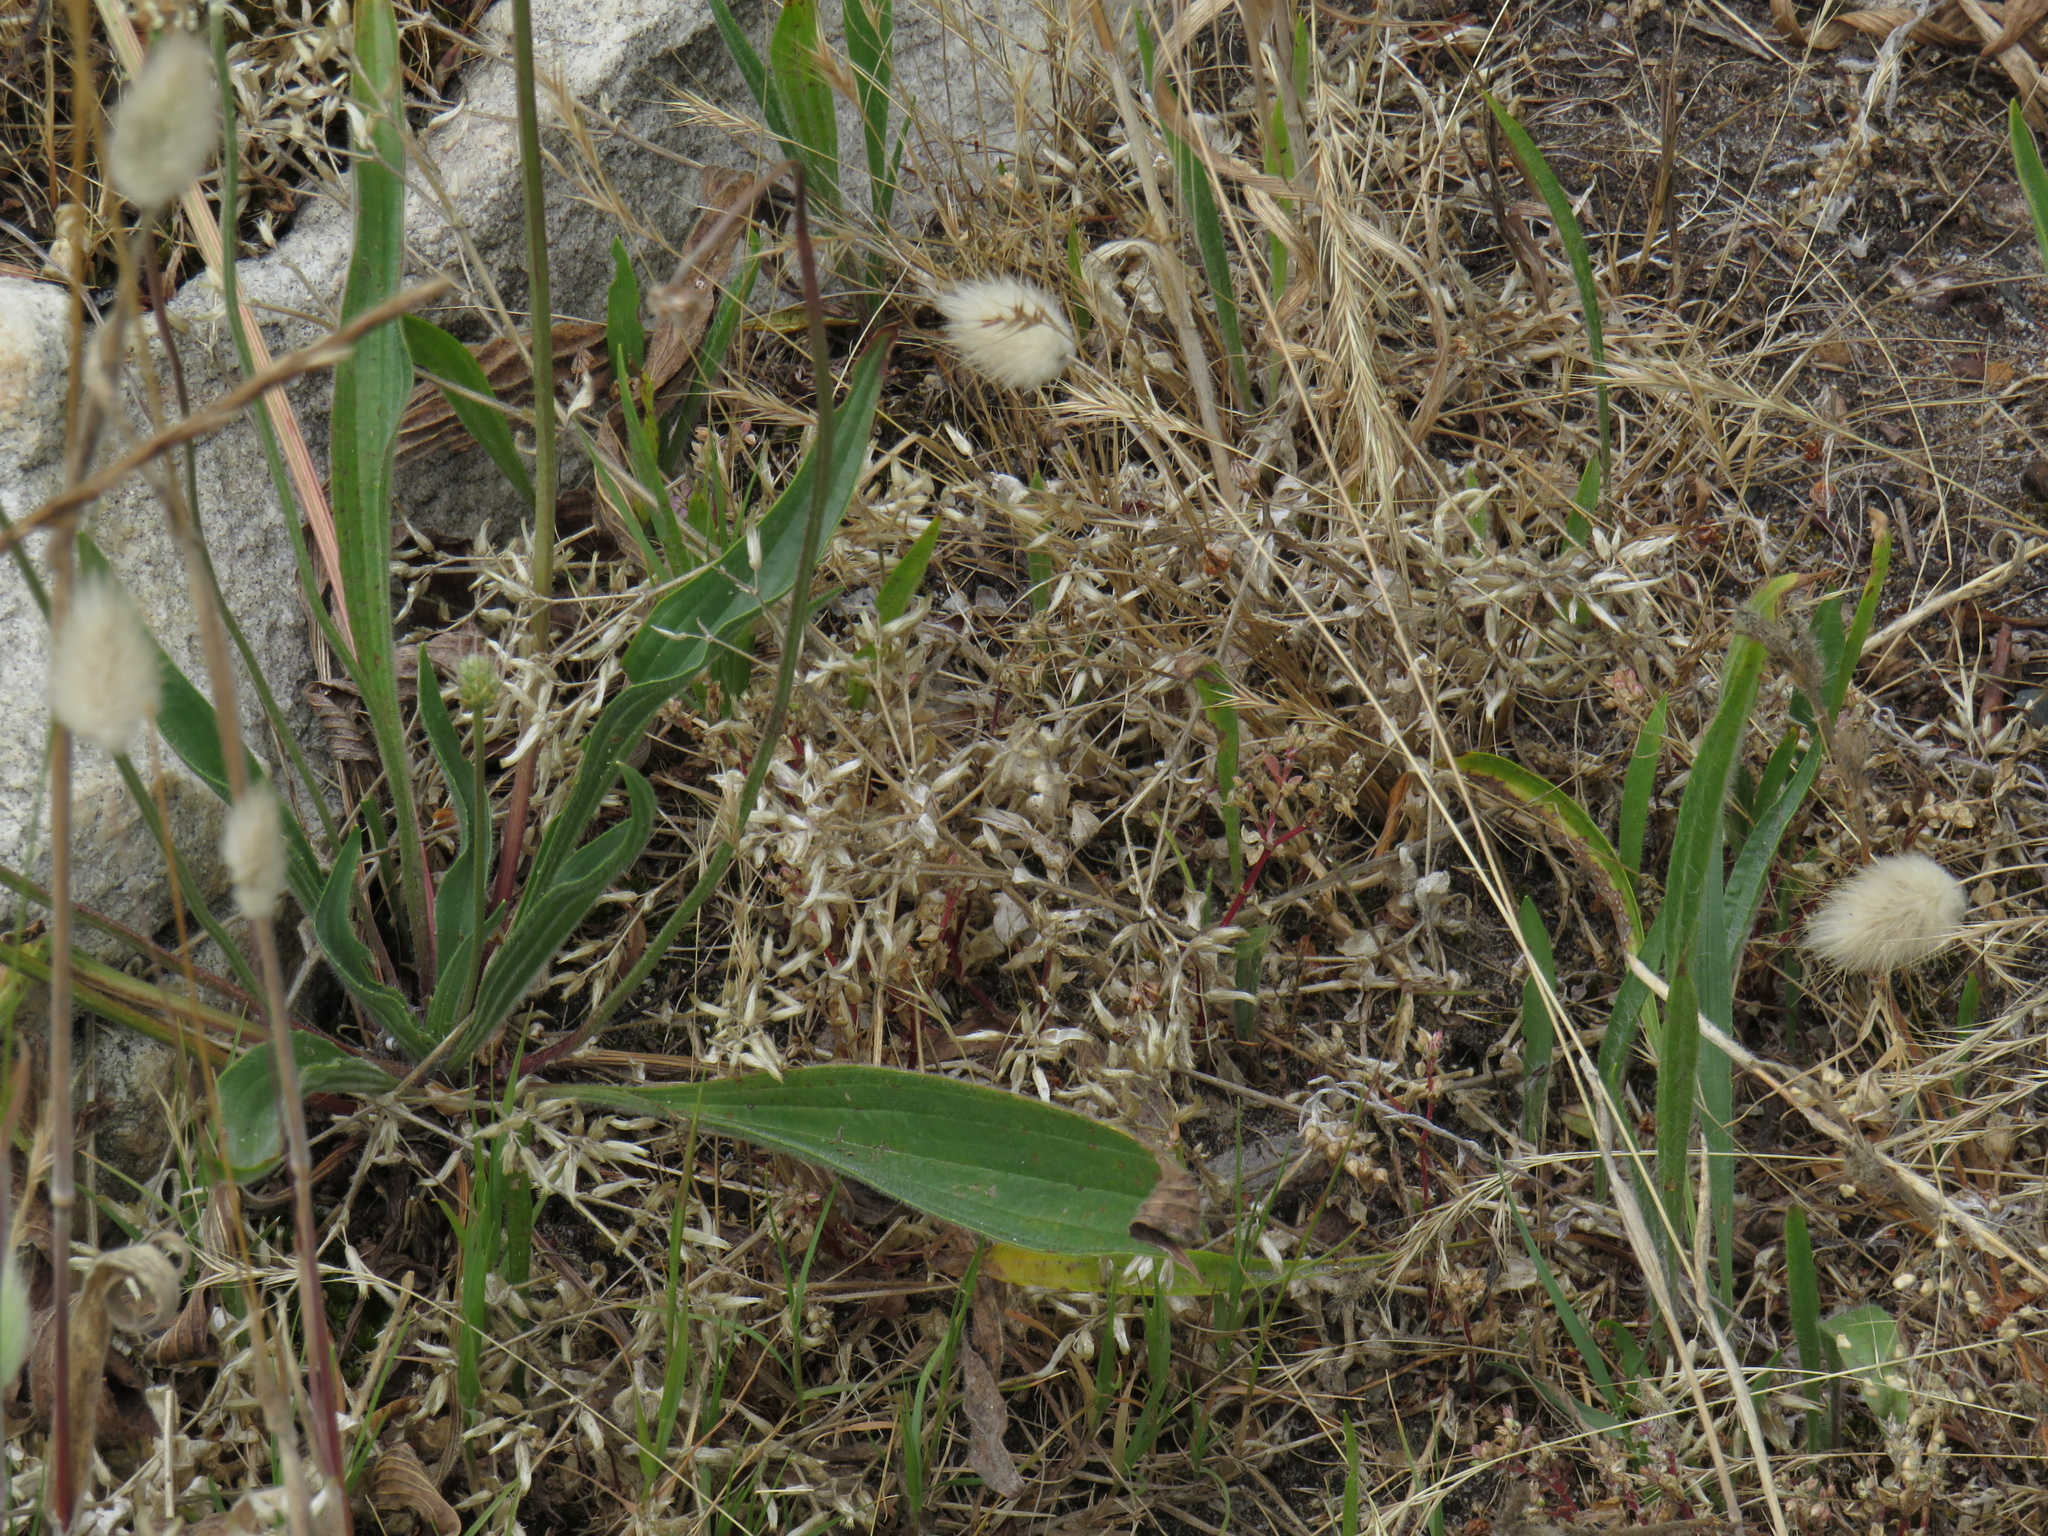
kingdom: Plantae
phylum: Tracheophyta
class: Magnoliopsida
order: Caryophyllales
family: Caryophyllaceae
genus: Cerastium
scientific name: Cerastium capense
